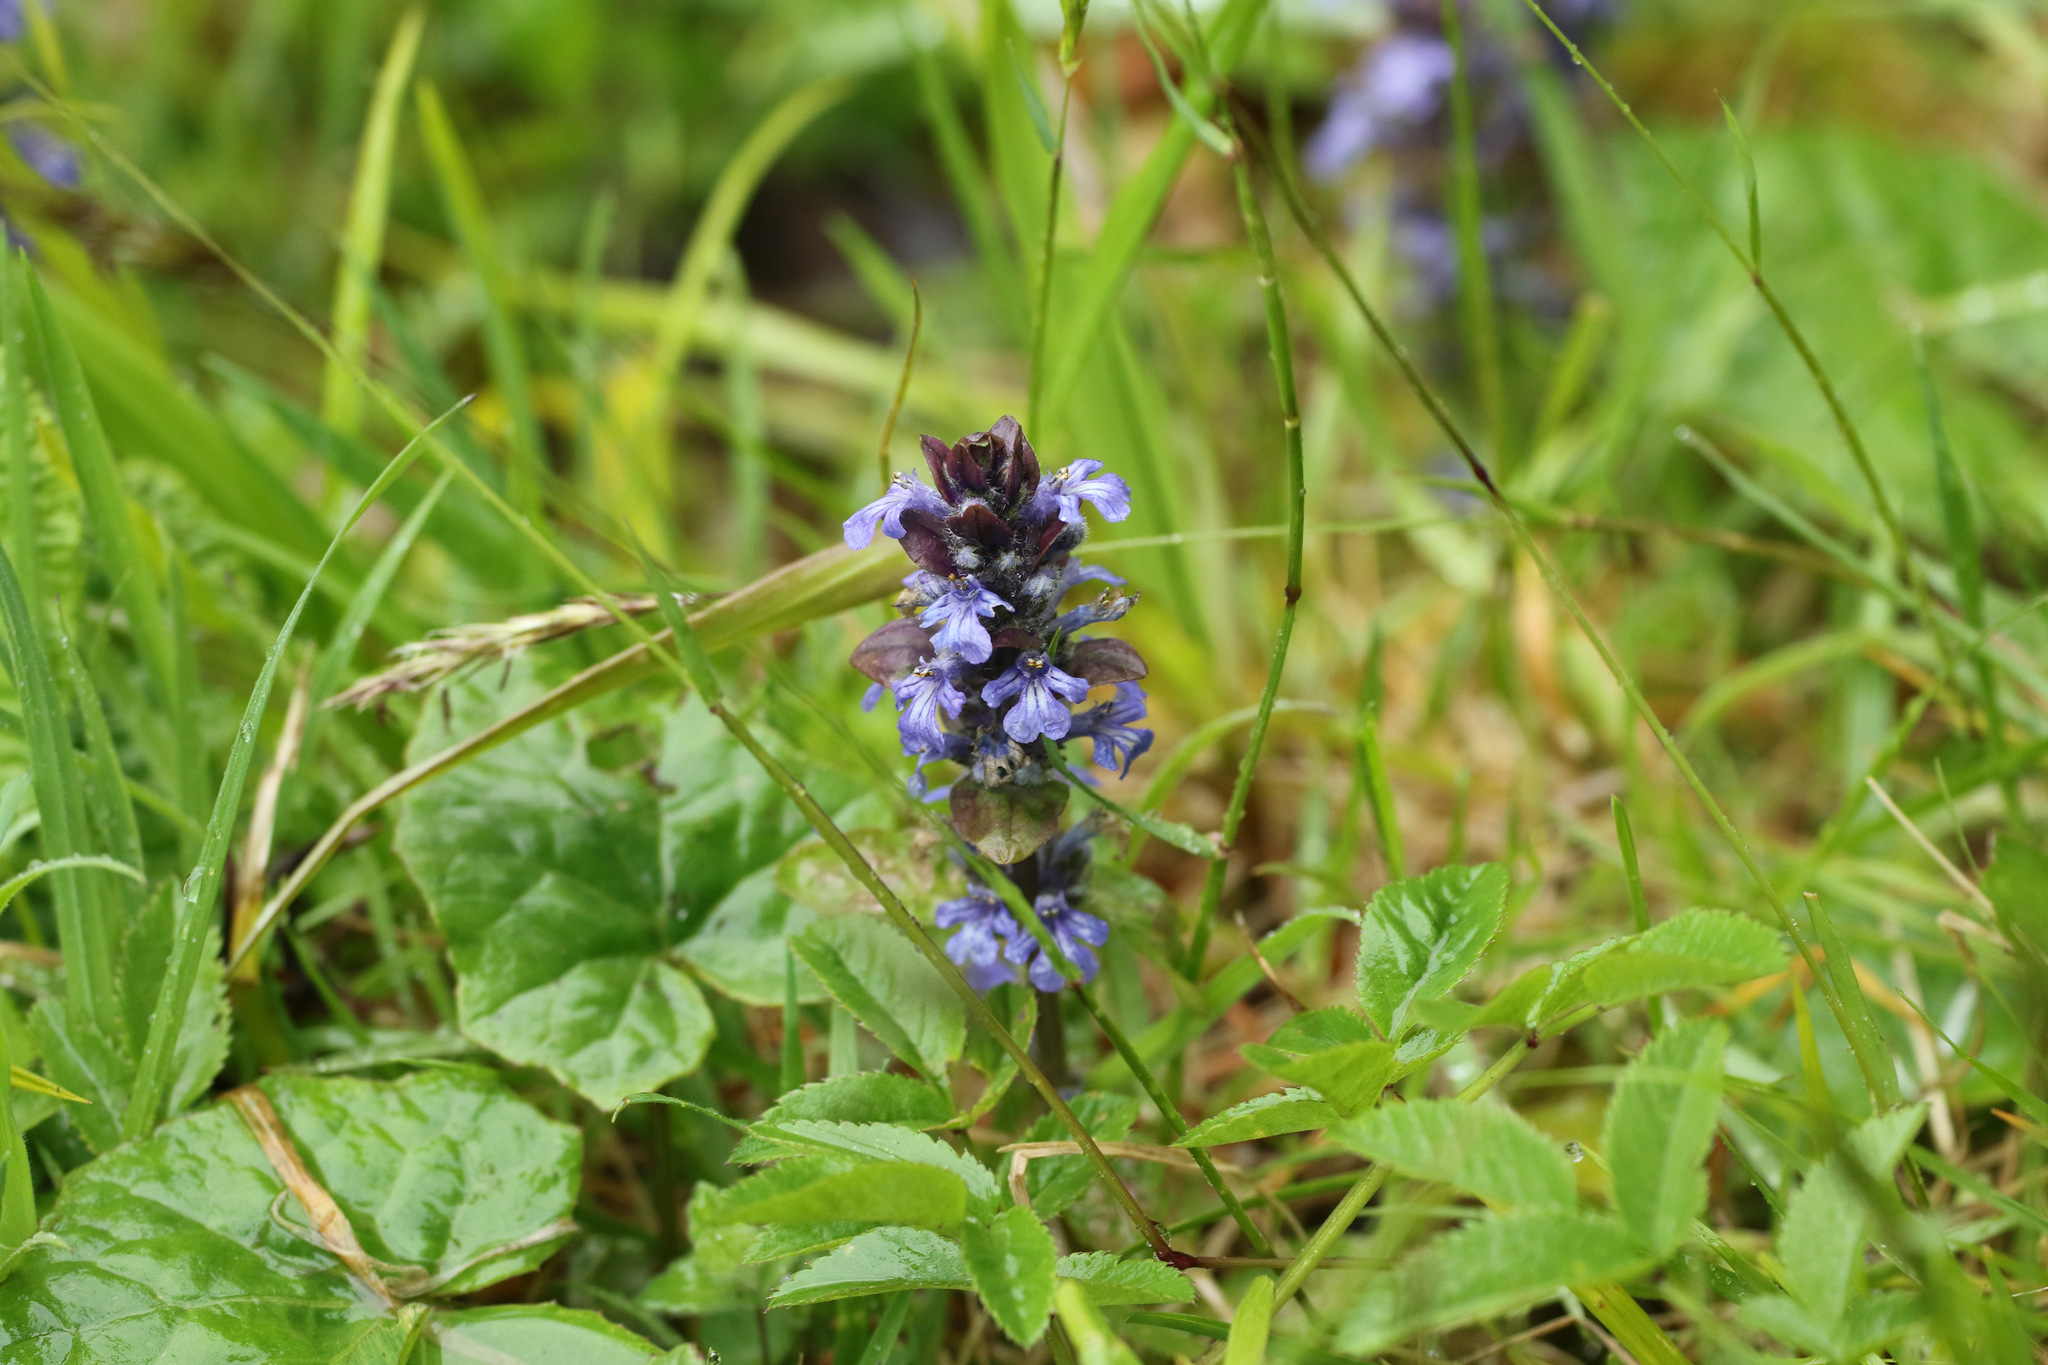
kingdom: Plantae
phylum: Tracheophyta
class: Magnoliopsida
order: Lamiales
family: Lamiaceae
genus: Ajuga
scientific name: Ajuga reptans
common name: Bugle
